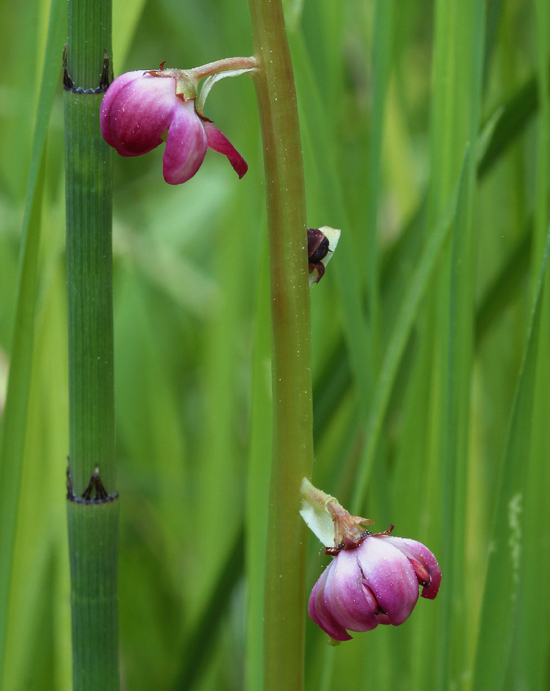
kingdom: Plantae
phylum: Tracheophyta
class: Magnoliopsida
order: Ericales
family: Ericaceae
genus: Pyrola
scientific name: Pyrola asarifolia
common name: Bog wintergreen
